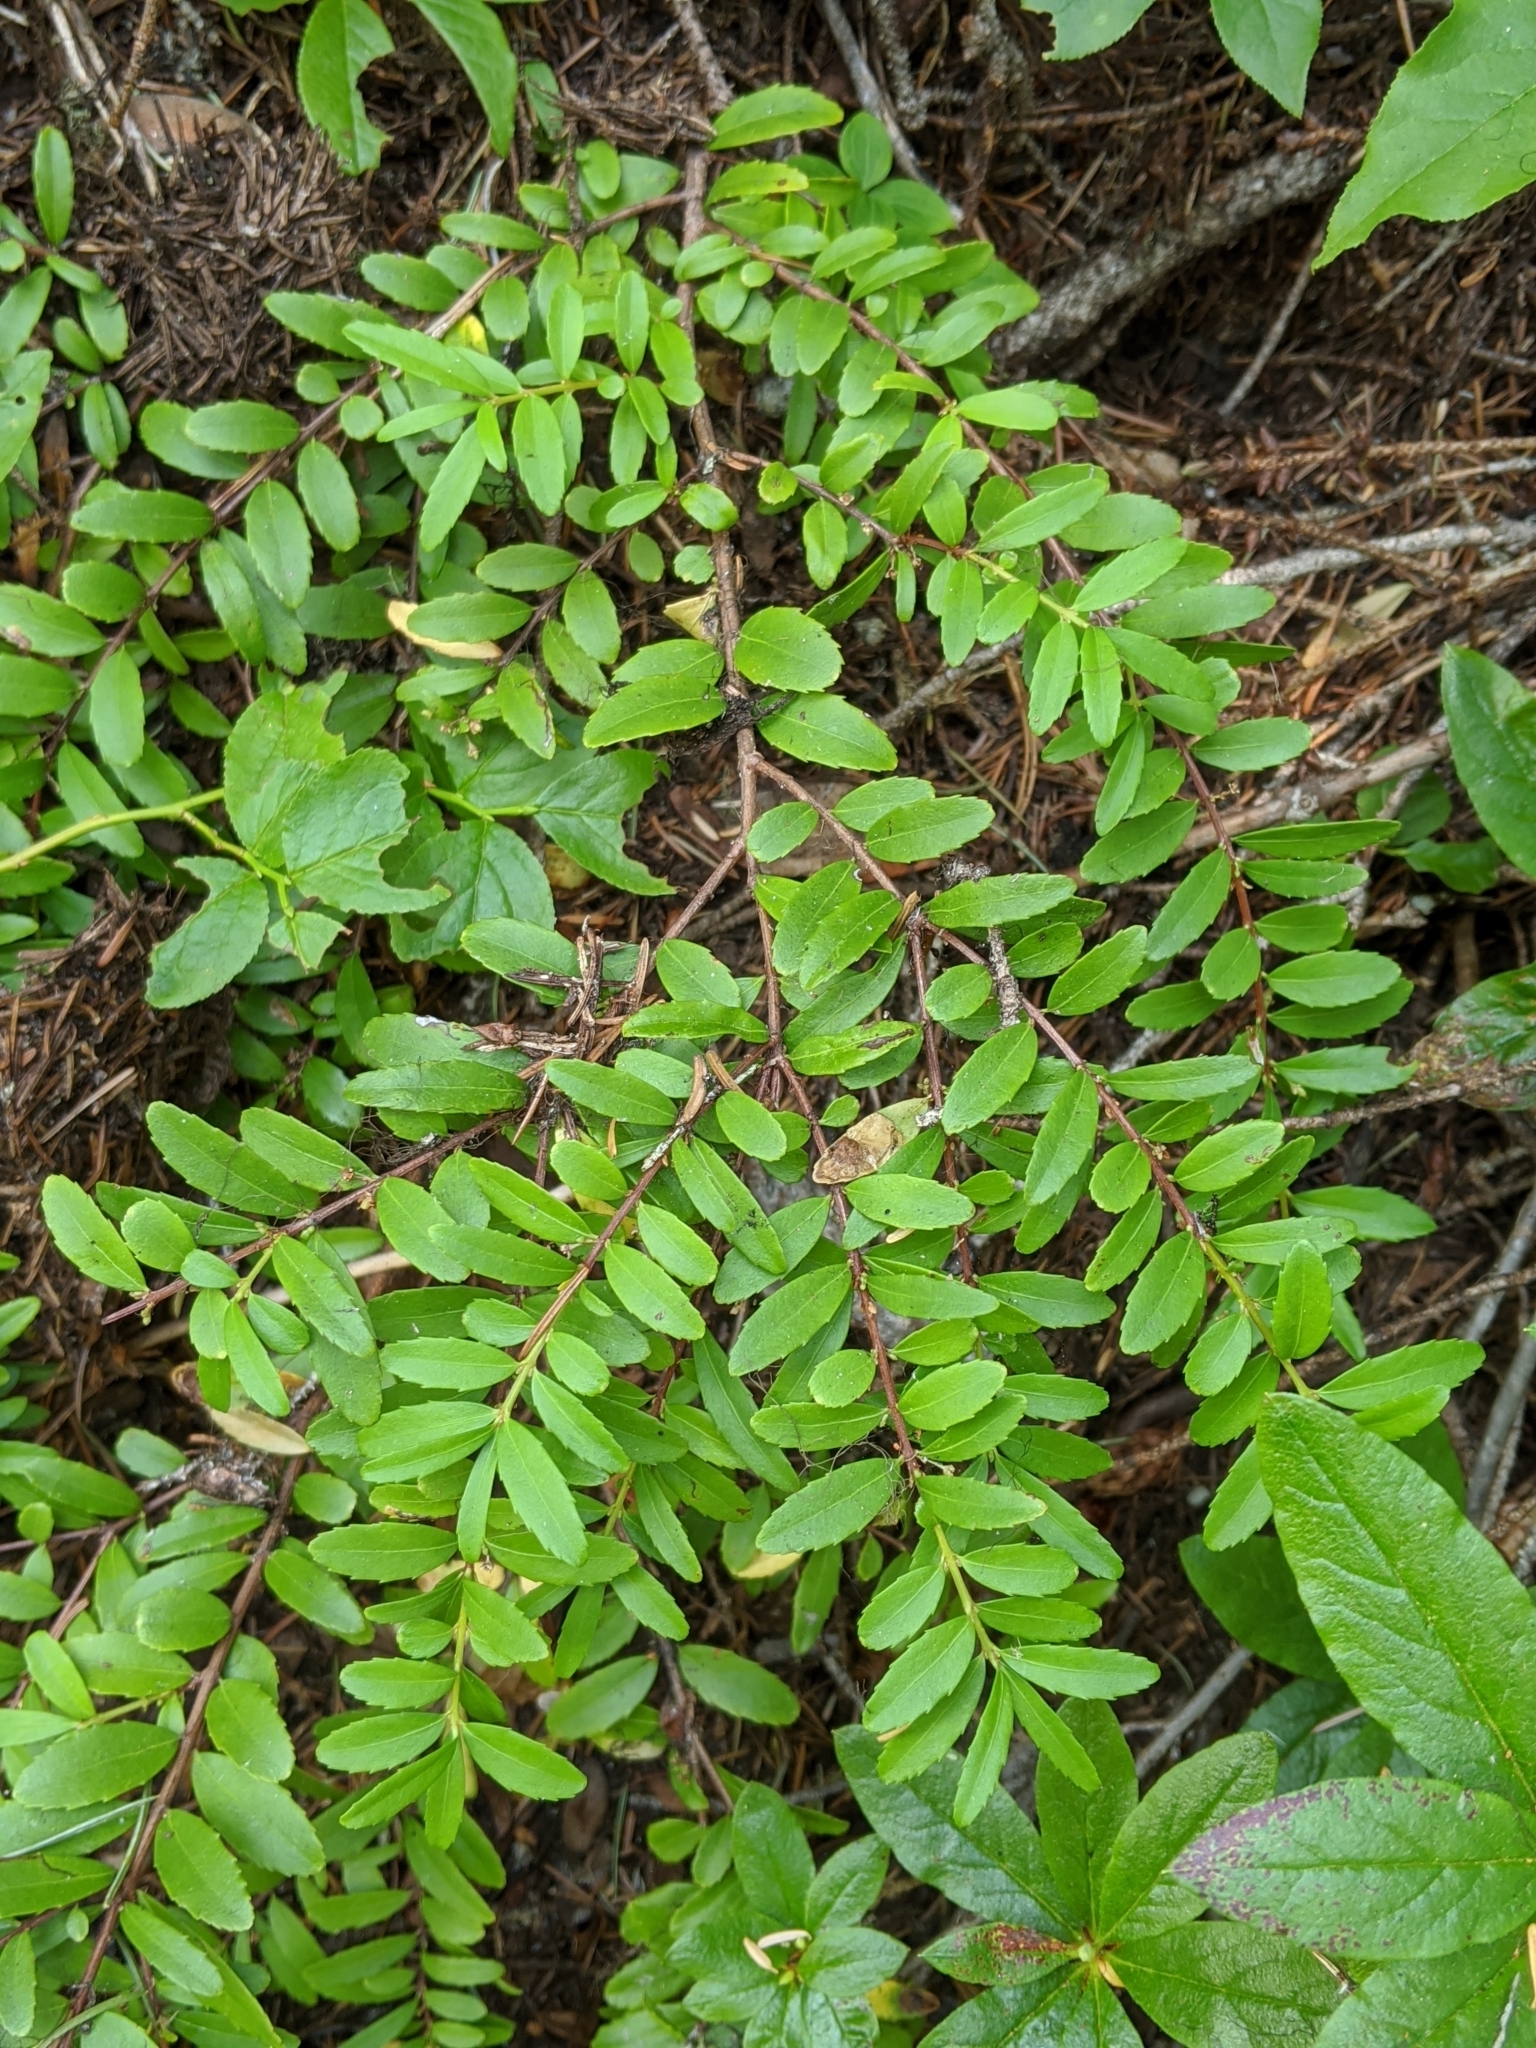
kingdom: Plantae
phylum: Tracheophyta
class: Magnoliopsida
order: Celastrales
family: Celastraceae
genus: Paxistima
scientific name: Paxistima myrsinites
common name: Mountain-lover
